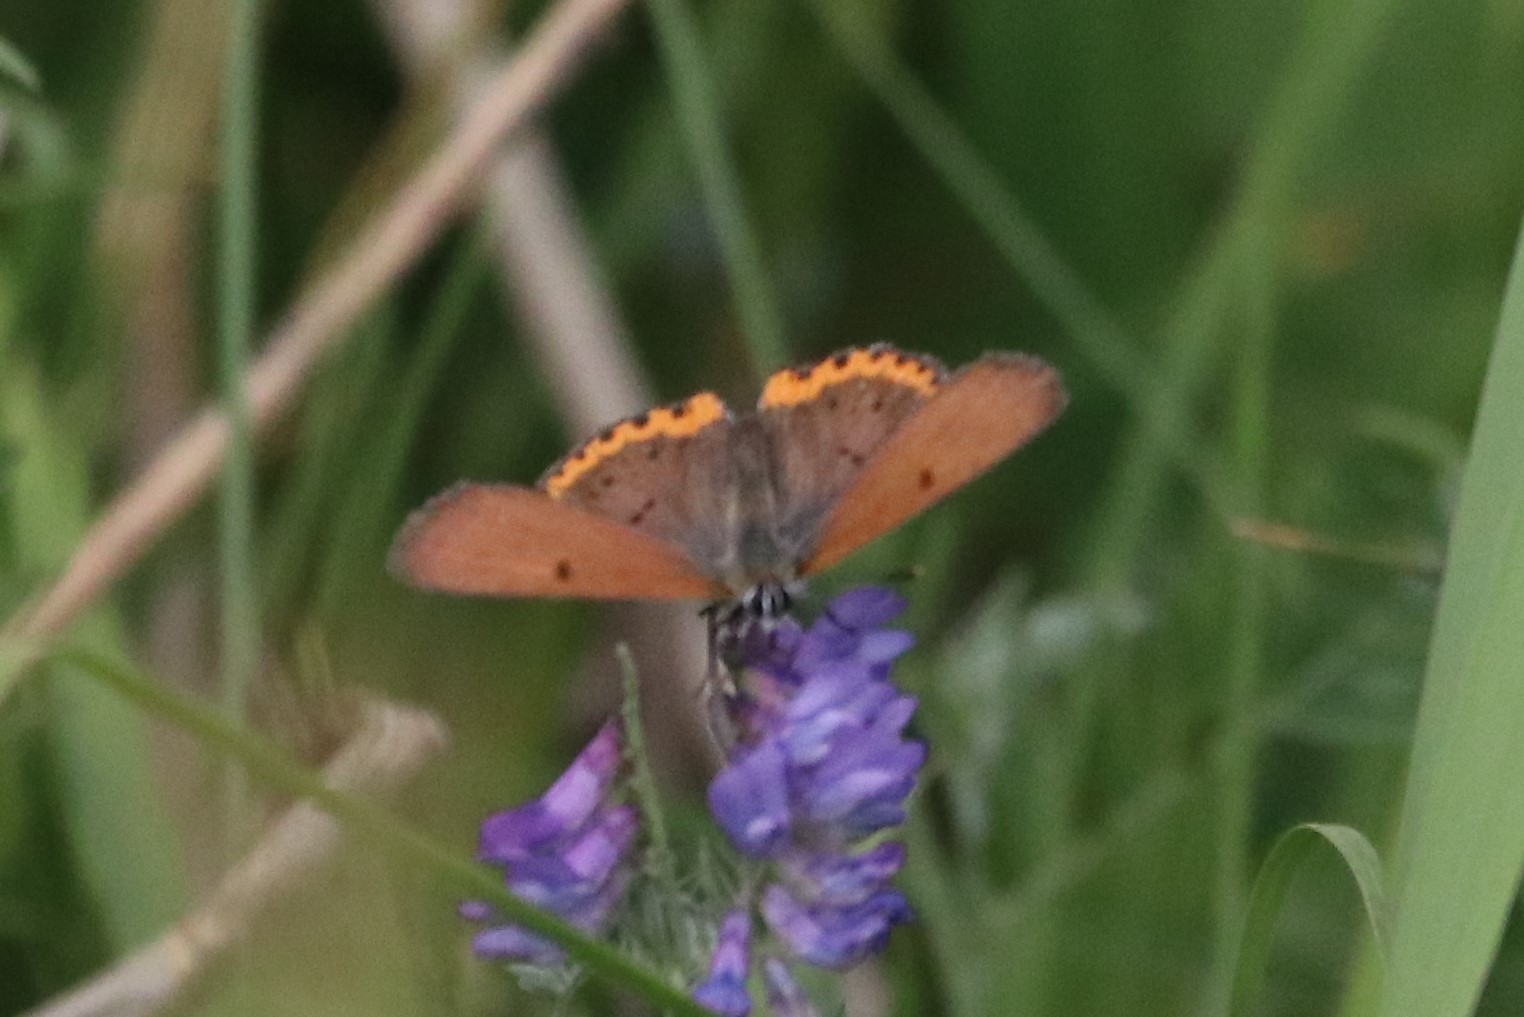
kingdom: Animalia
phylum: Arthropoda
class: Insecta
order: Lepidoptera
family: Lycaenidae
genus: Tharsalea
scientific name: Tharsalea hyllus
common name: Bronze copper
